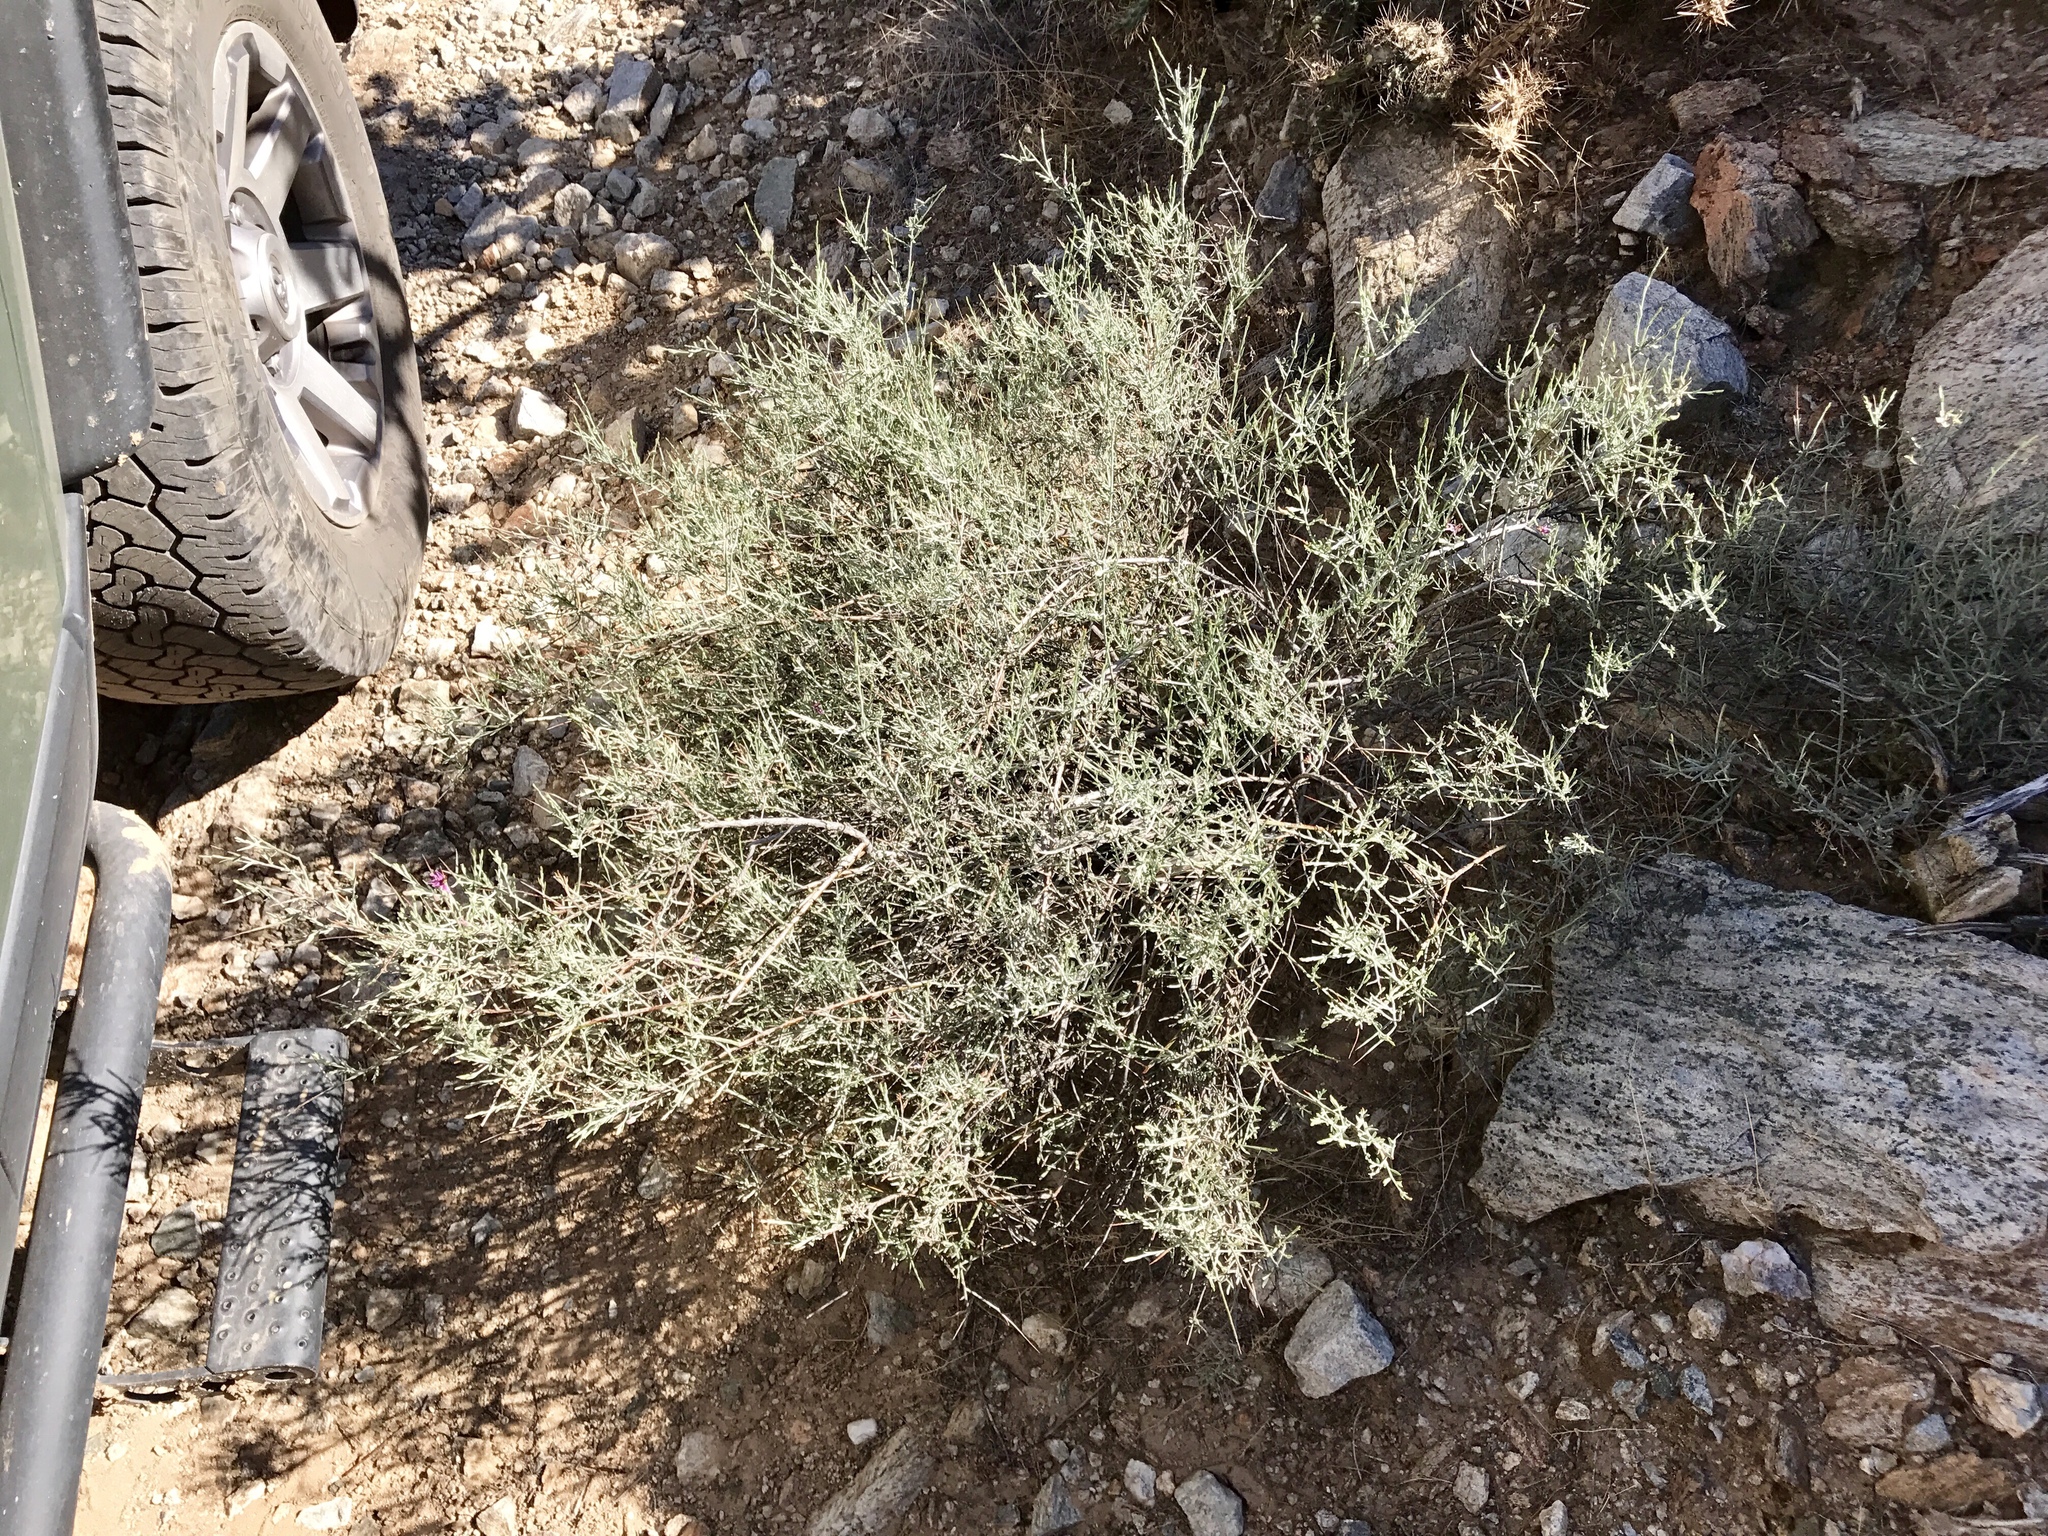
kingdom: Plantae
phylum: Tracheophyta
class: Magnoliopsida
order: Zygophyllales
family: Krameriaceae
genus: Krameria
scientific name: Krameria bicolor
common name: White ratany
